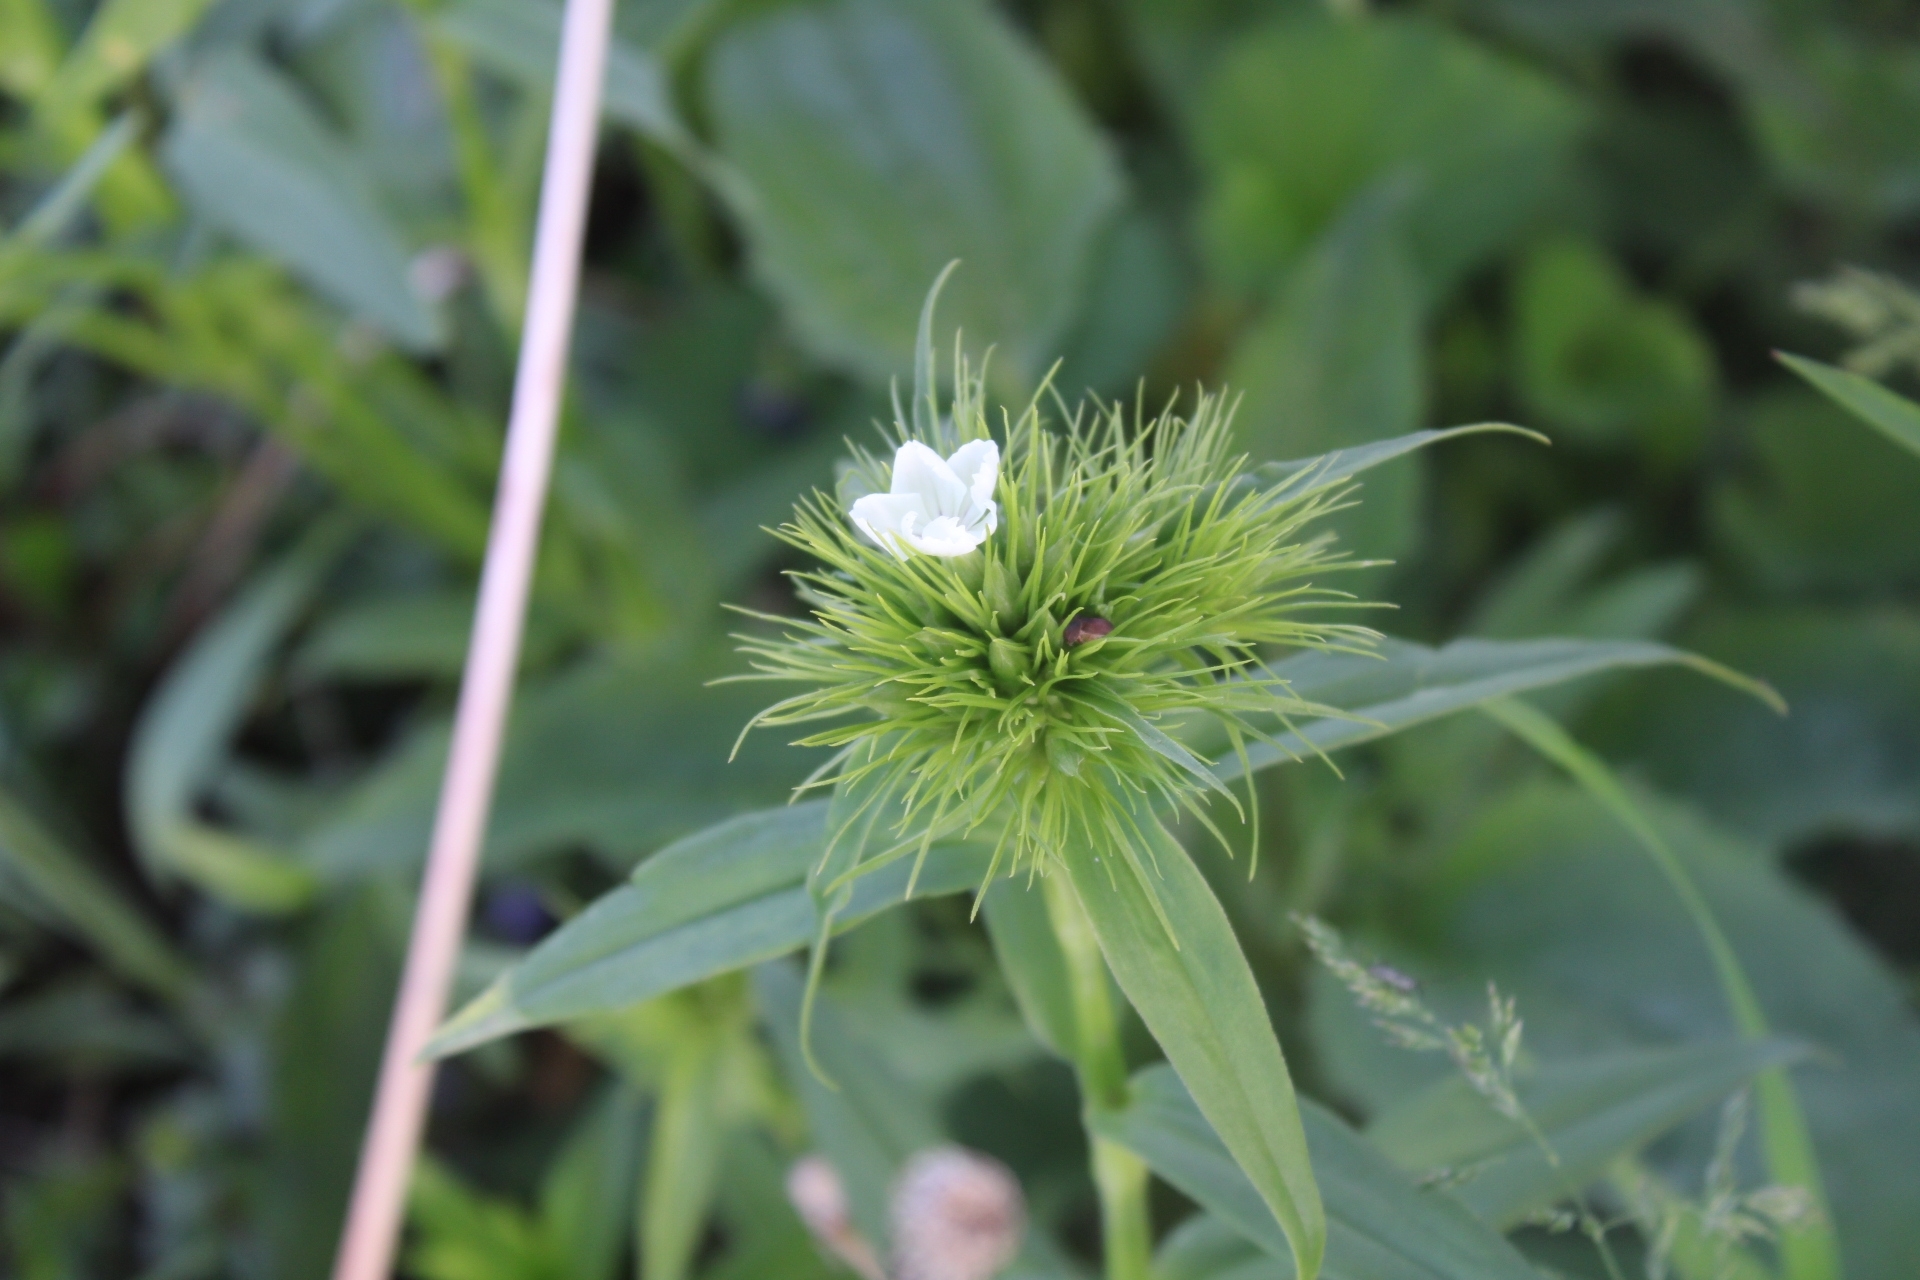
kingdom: Plantae
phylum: Tracheophyta
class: Magnoliopsida
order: Caryophyllales
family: Caryophyllaceae
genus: Dianthus
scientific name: Dianthus barbatus
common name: Sweet-william
